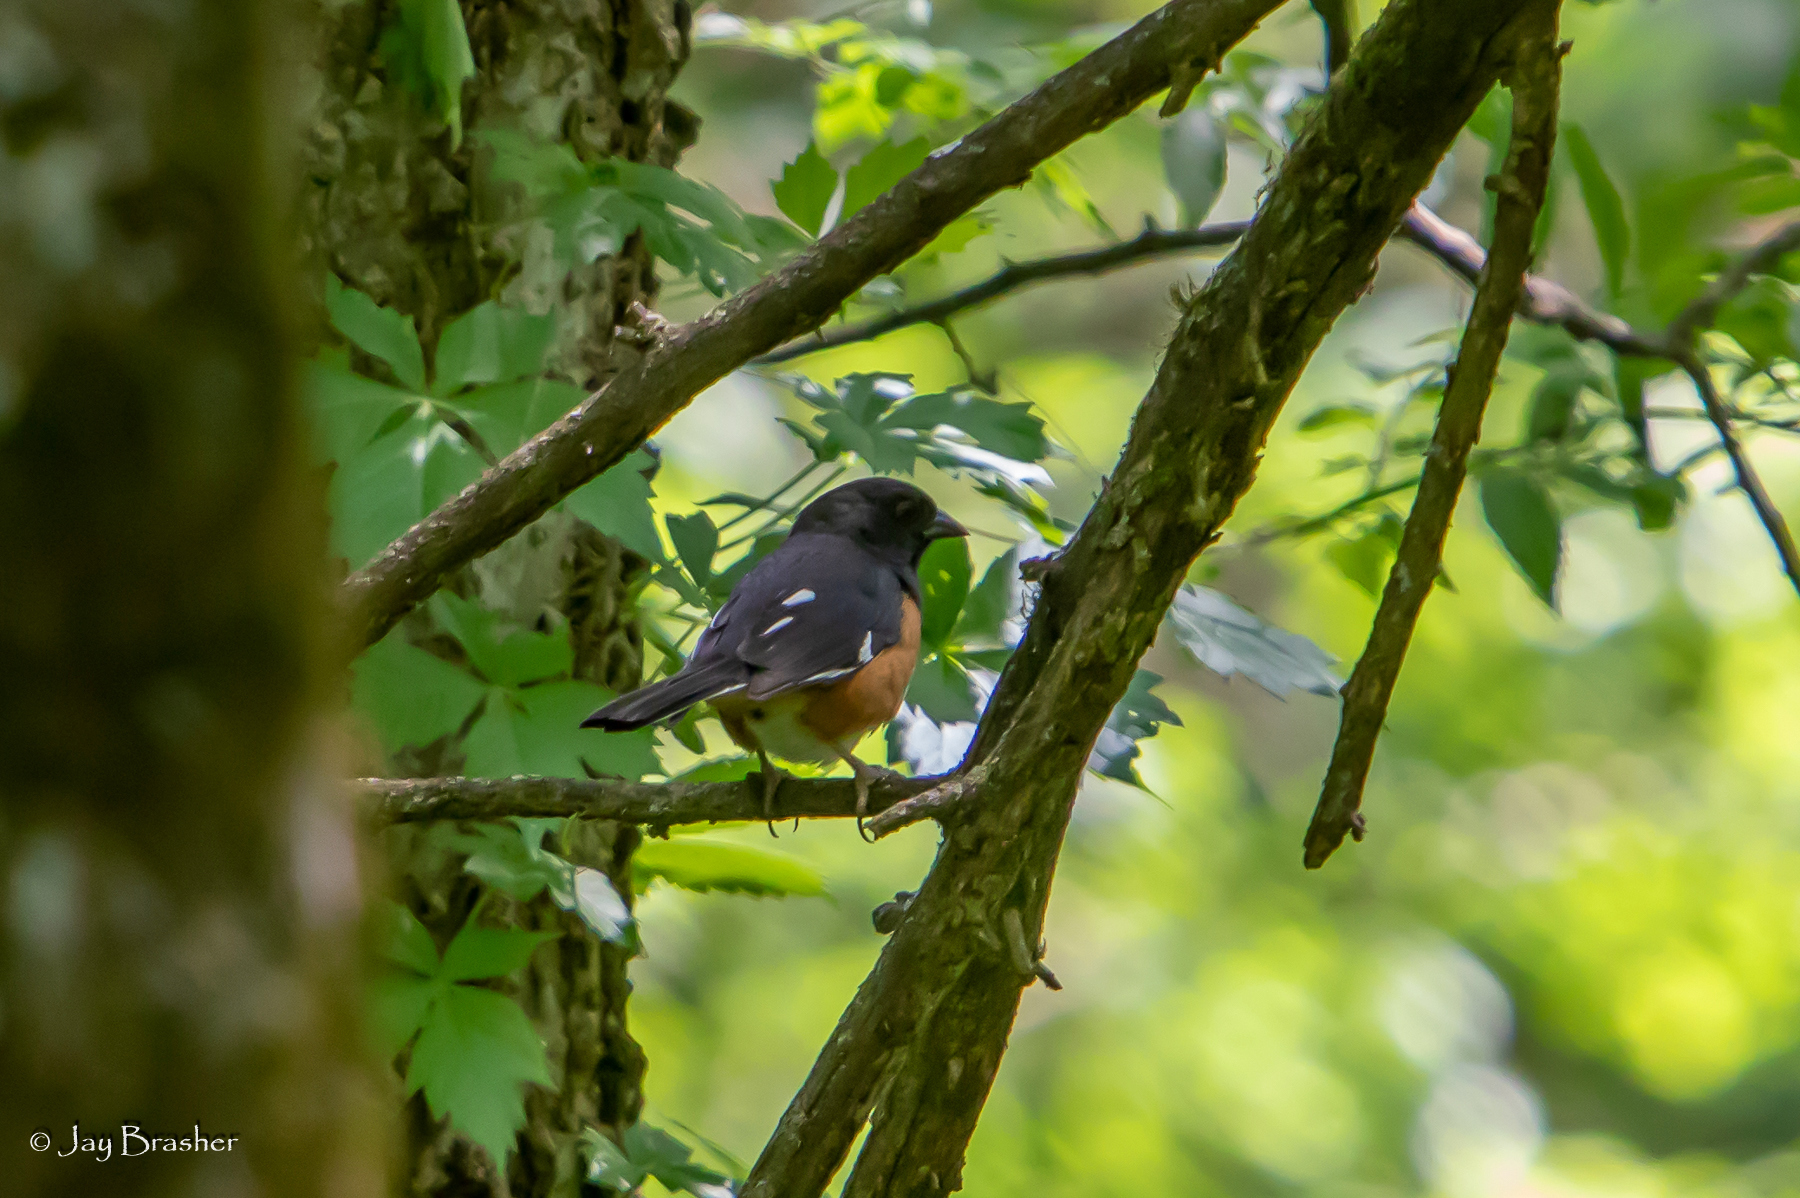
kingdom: Animalia
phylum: Chordata
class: Aves
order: Passeriformes
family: Passerellidae
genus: Pipilo
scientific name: Pipilo erythrophthalmus
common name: Eastern towhee
